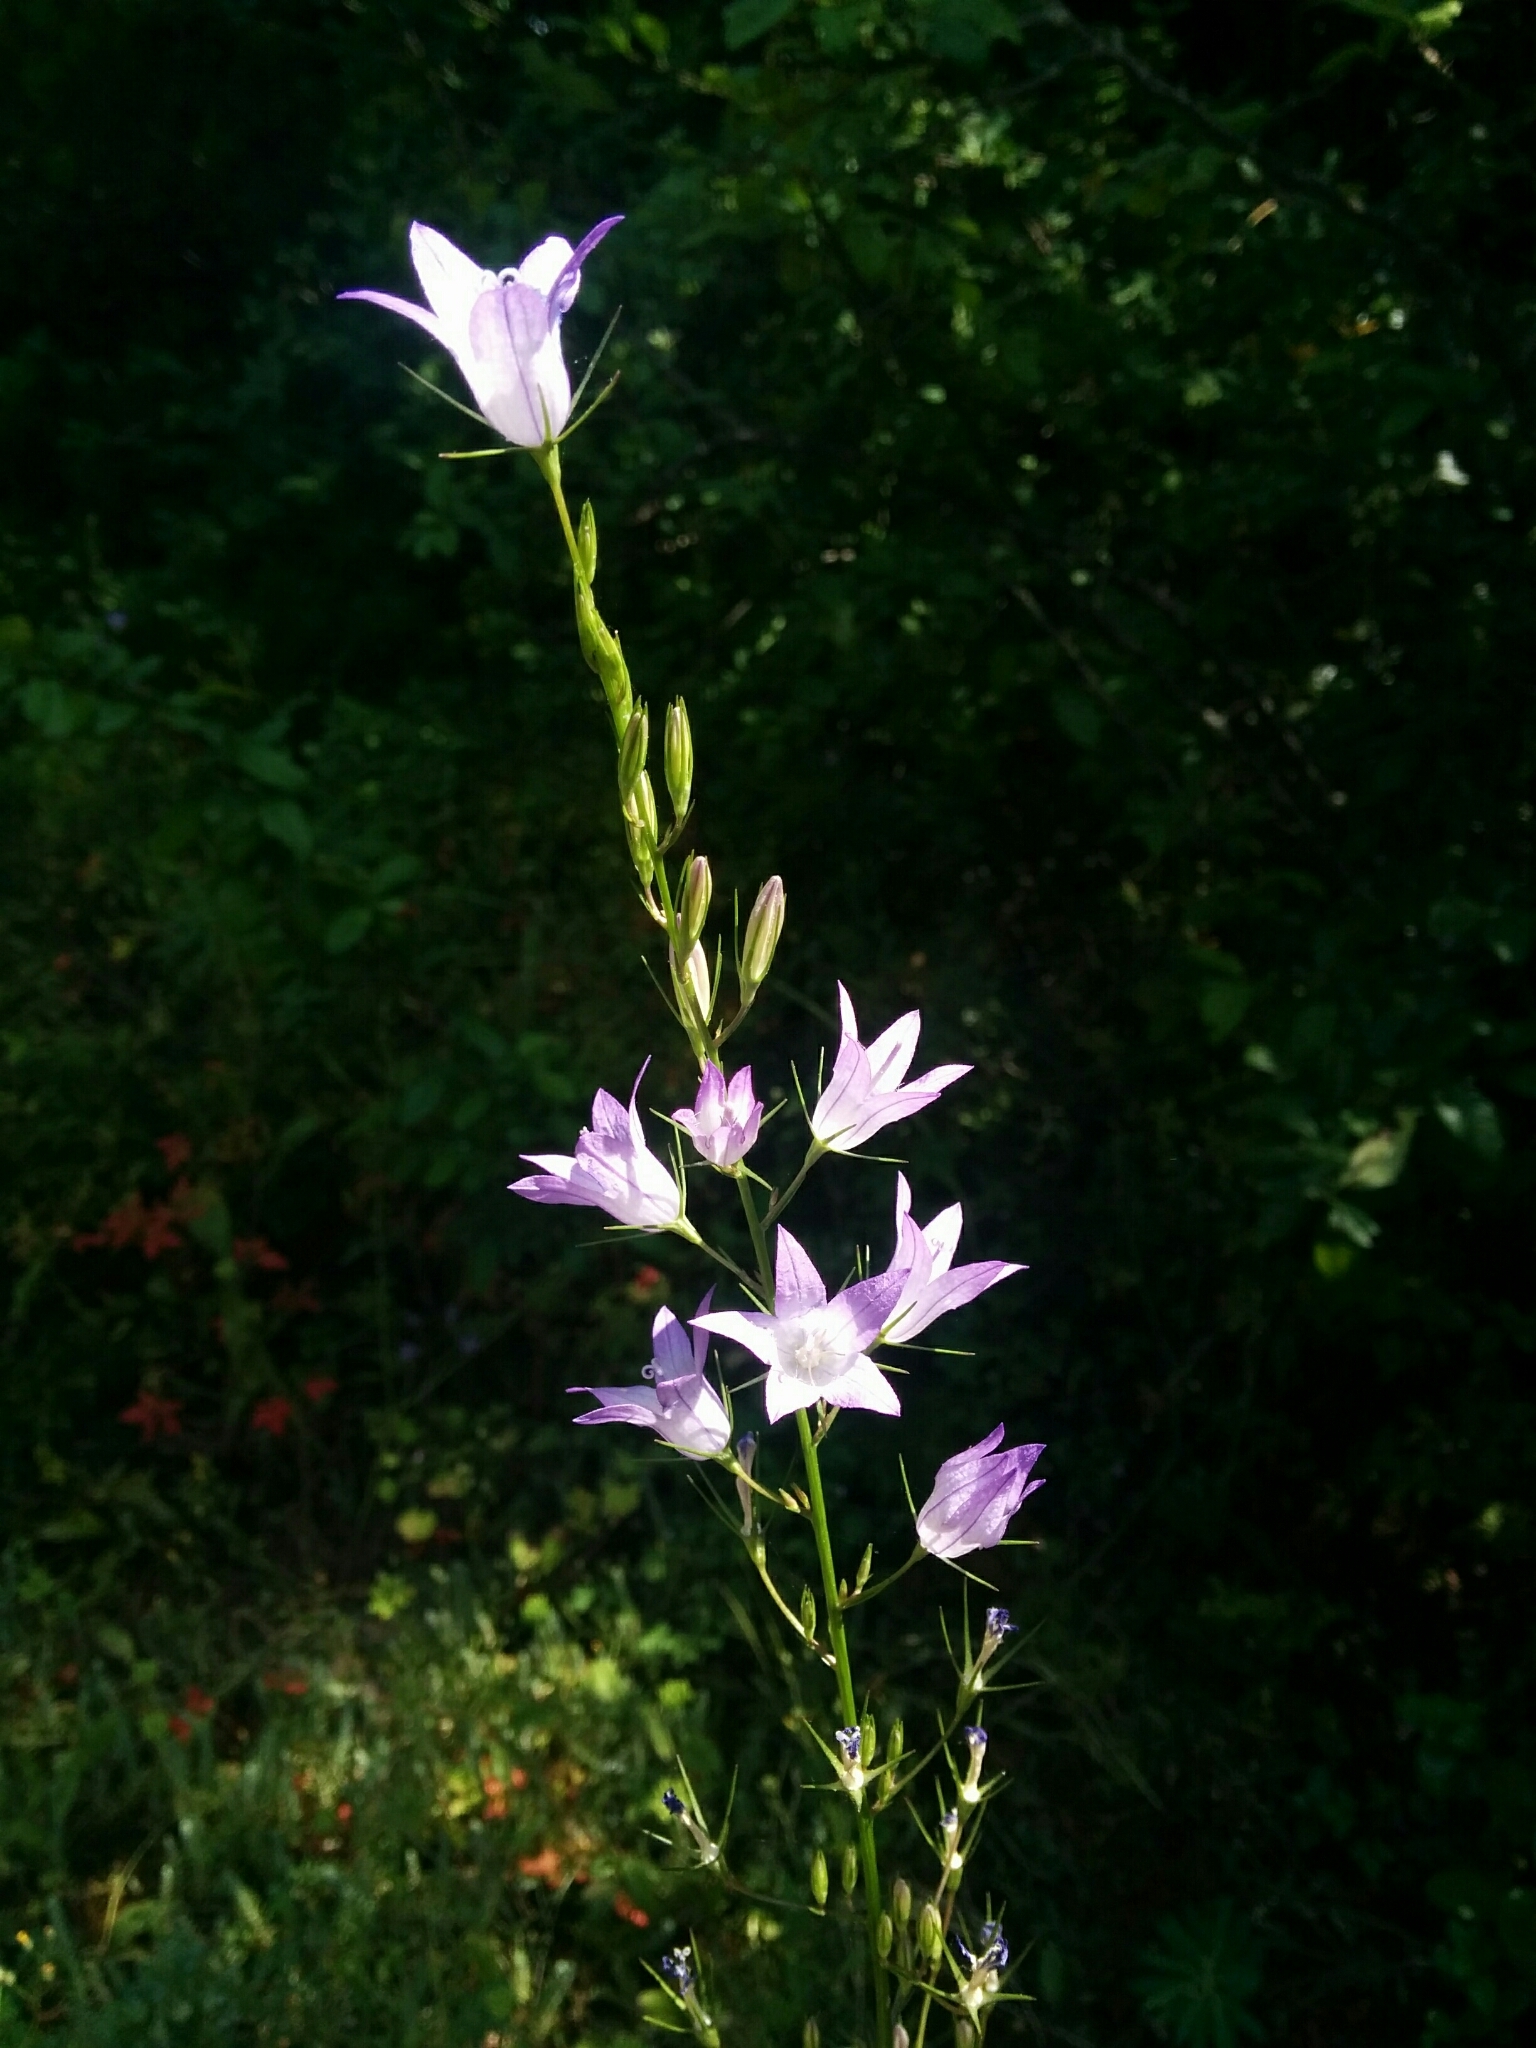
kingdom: Plantae
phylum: Tracheophyta
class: Magnoliopsida
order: Asterales
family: Campanulaceae
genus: Campanula
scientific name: Campanula rapunculus
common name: Rampion bellflower
